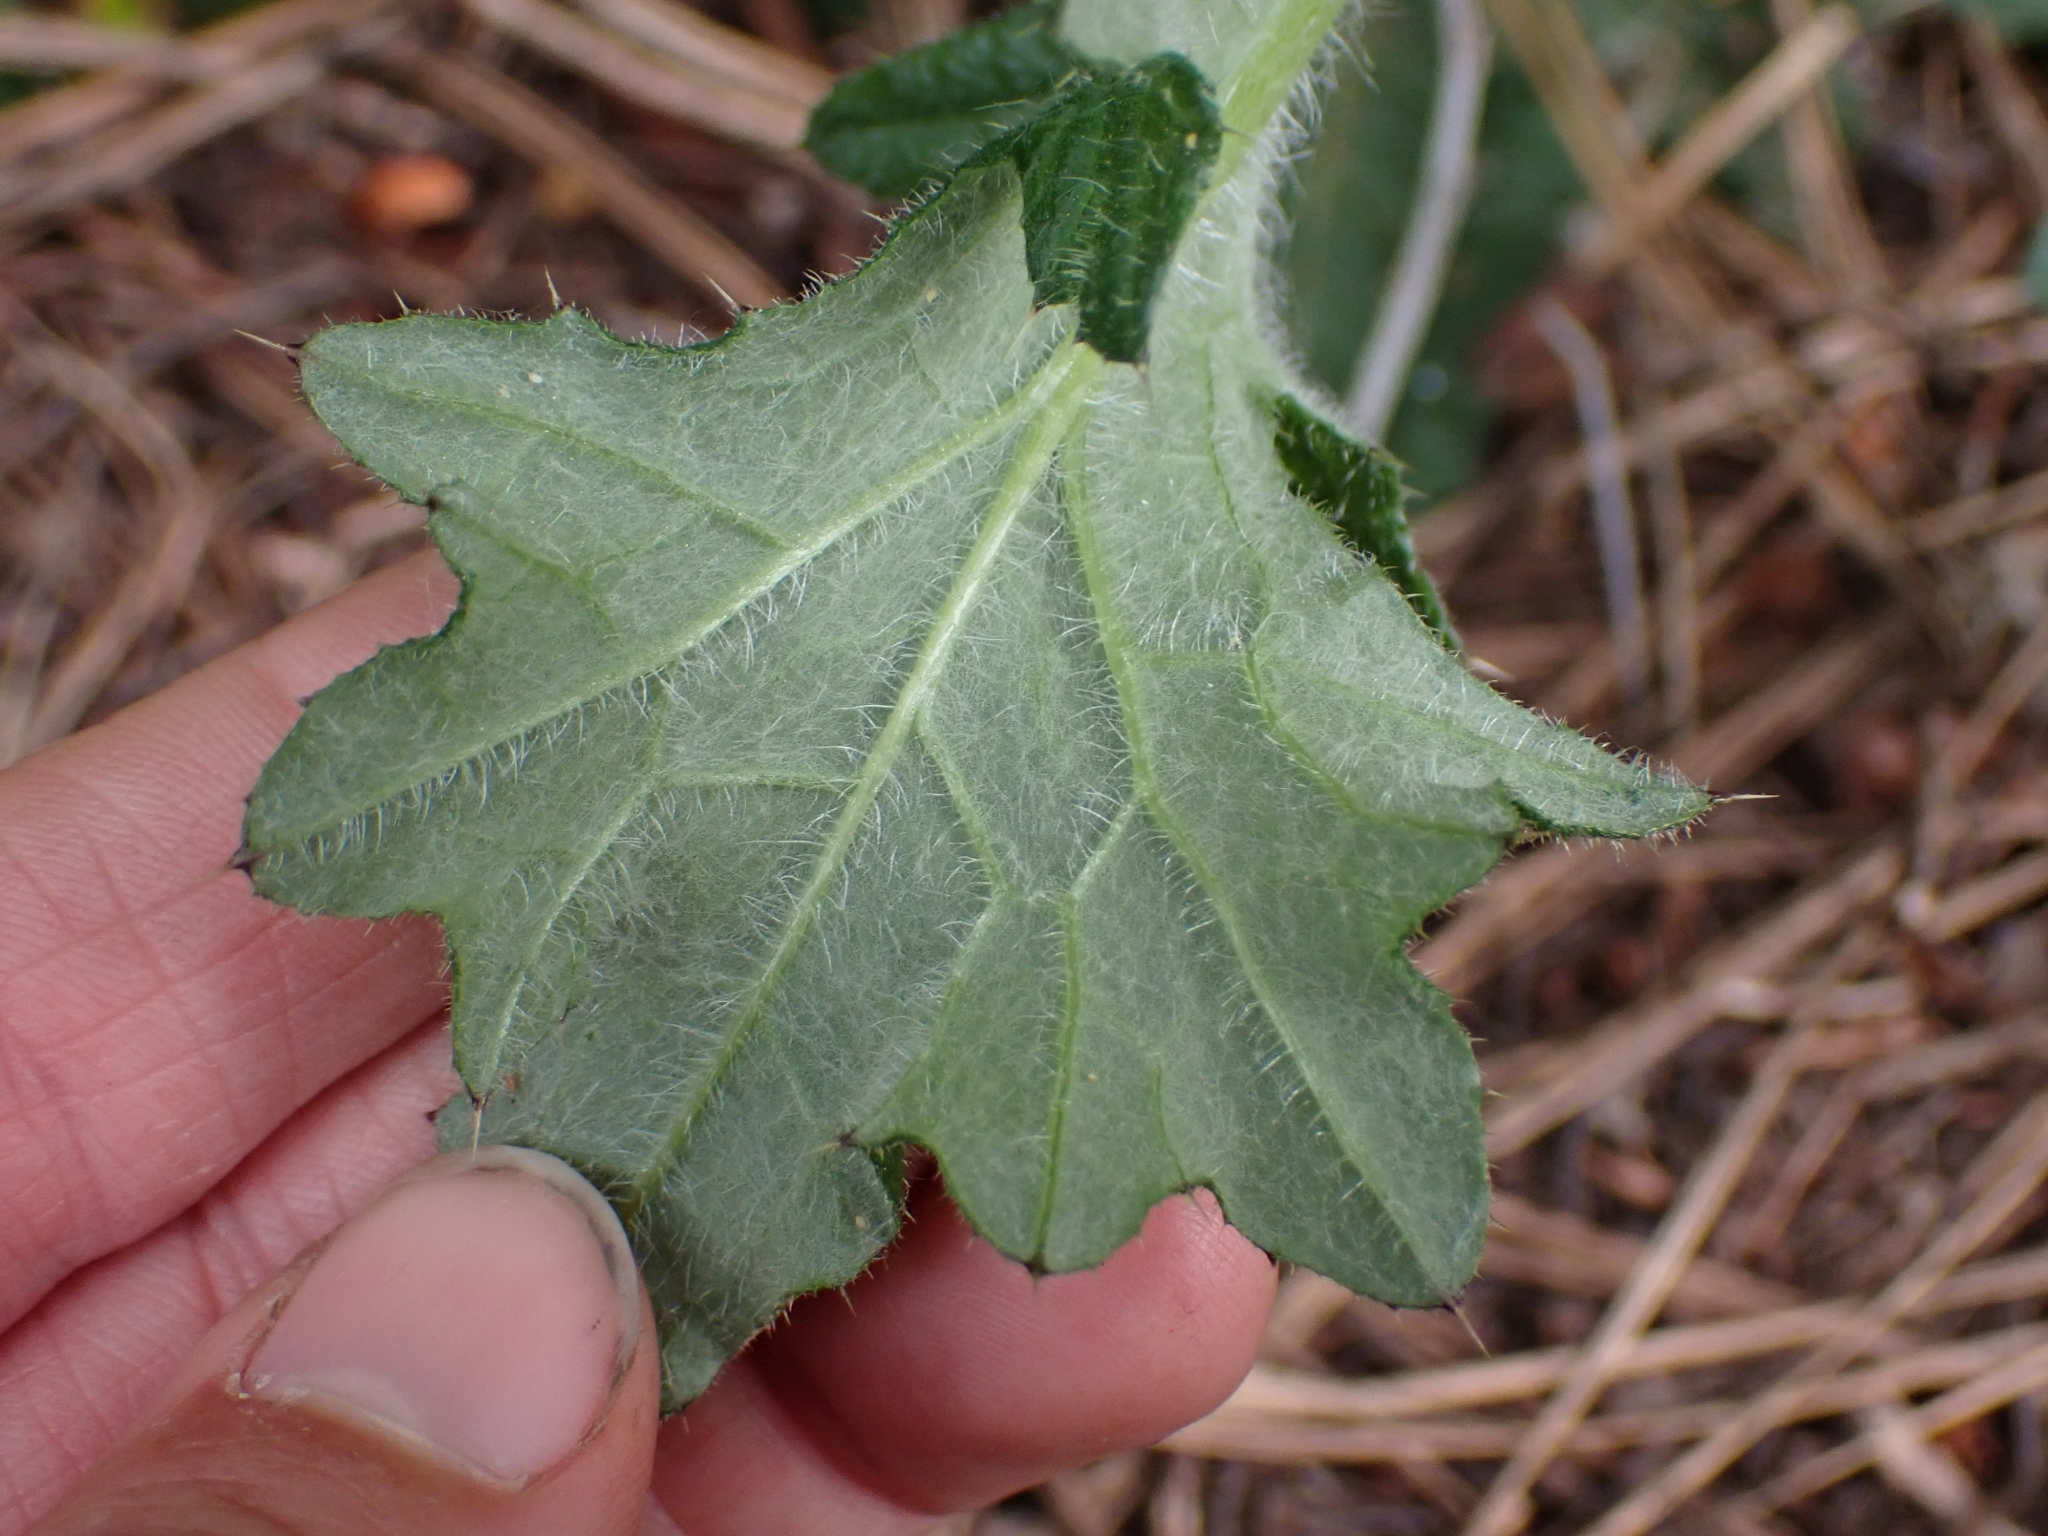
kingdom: Plantae
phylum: Tracheophyta
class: Magnoliopsida
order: Asterales
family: Asteraceae
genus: Cirsium
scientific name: Cirsium vulgare
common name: Bull thistle
